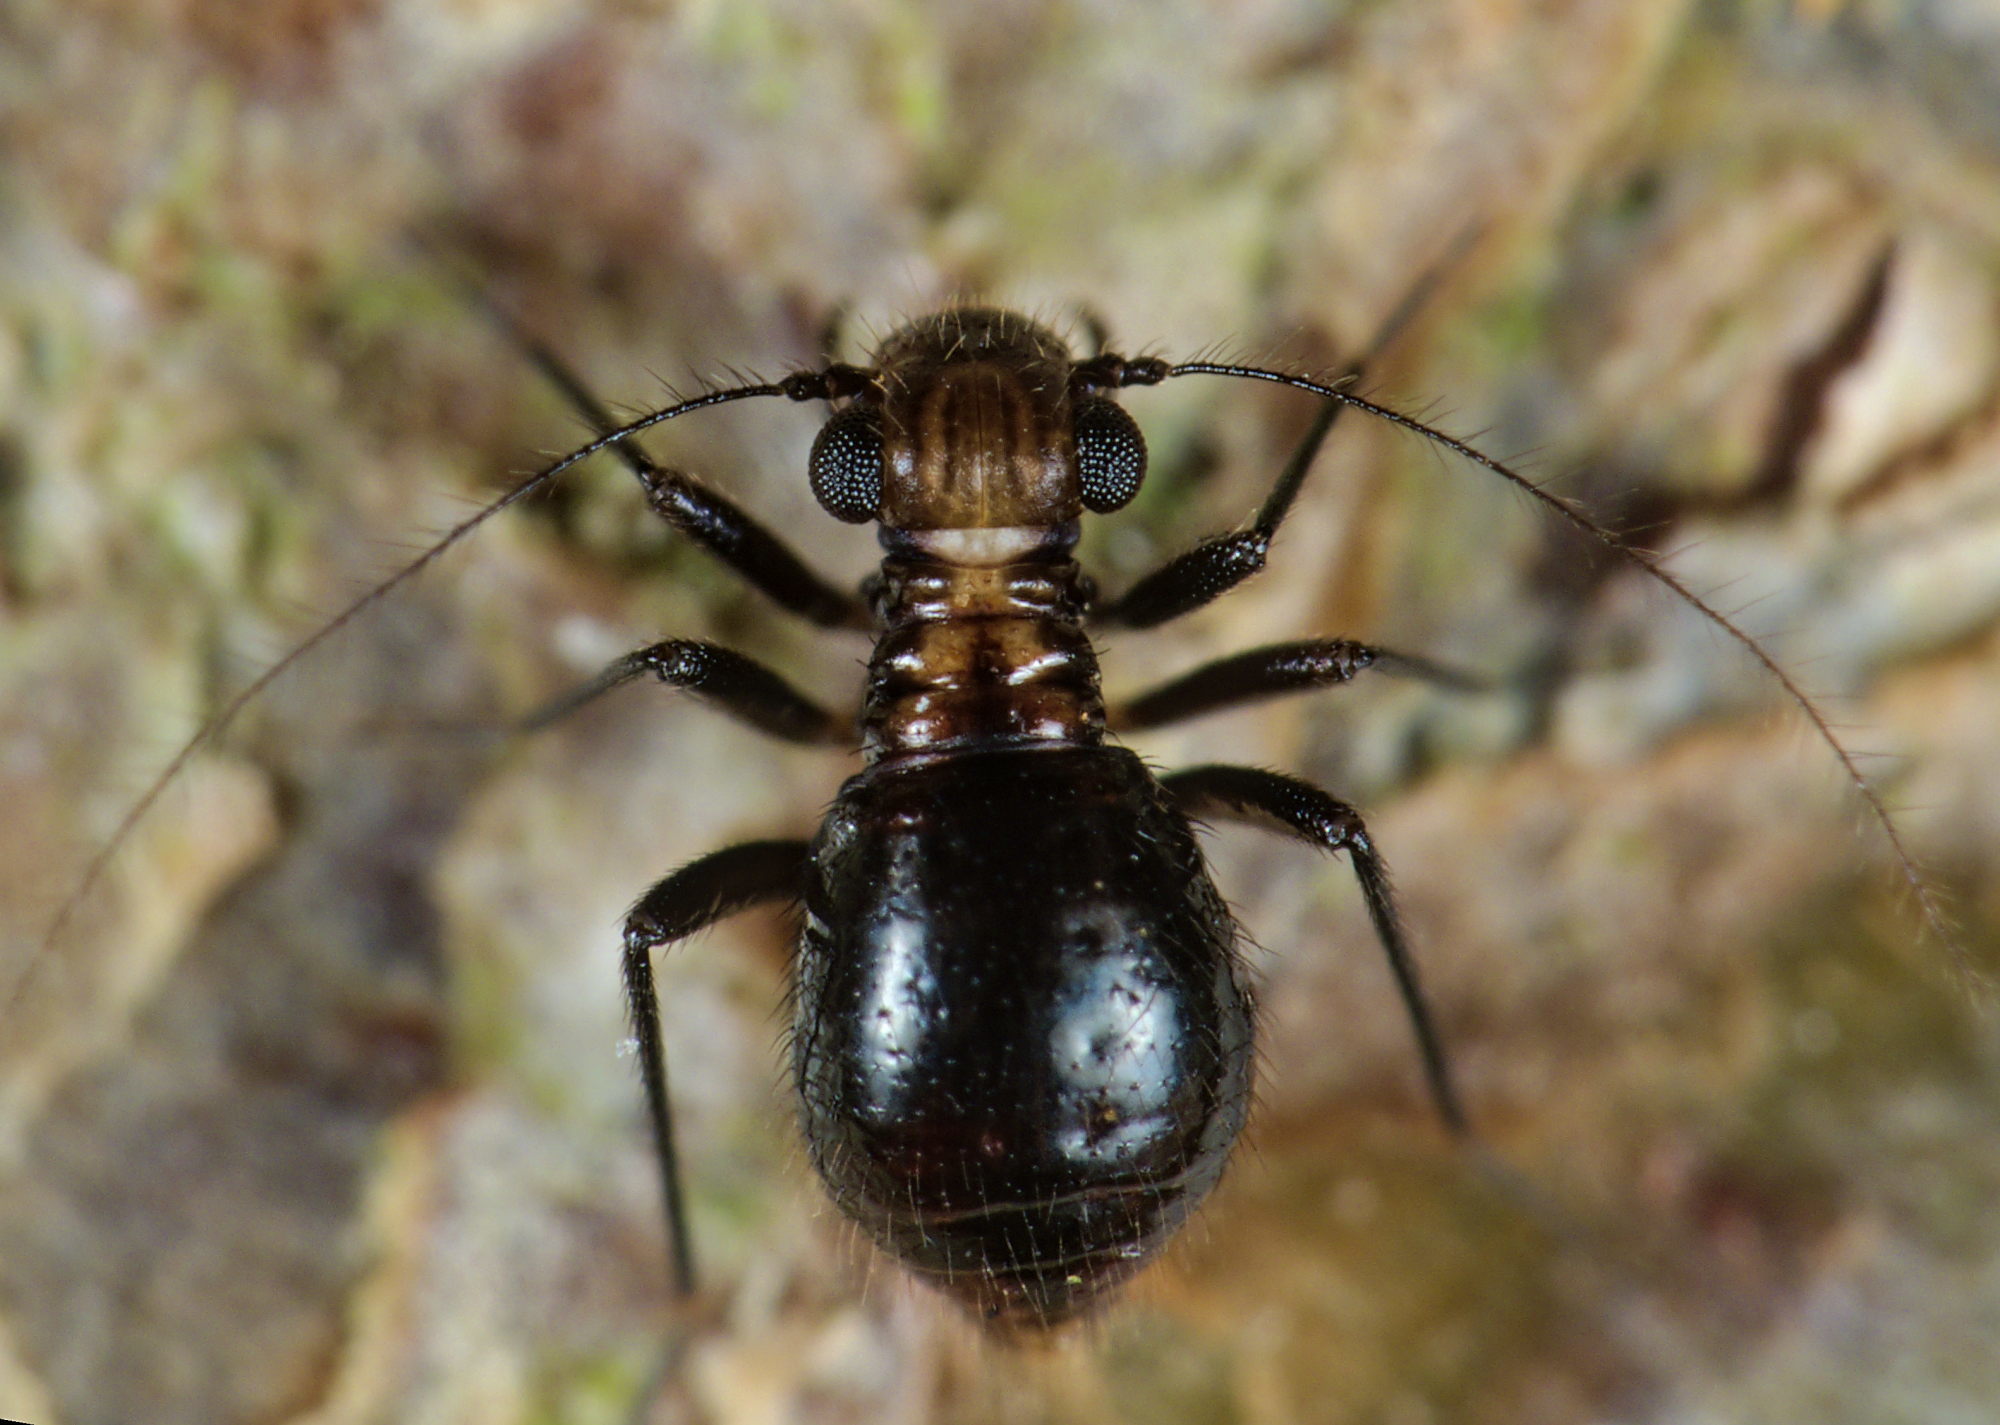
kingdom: Animalia
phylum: Arthropoda
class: Insecta
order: Psocodea
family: Epipsocidae
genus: Bertkauia
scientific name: Bertkauia lucifuga
